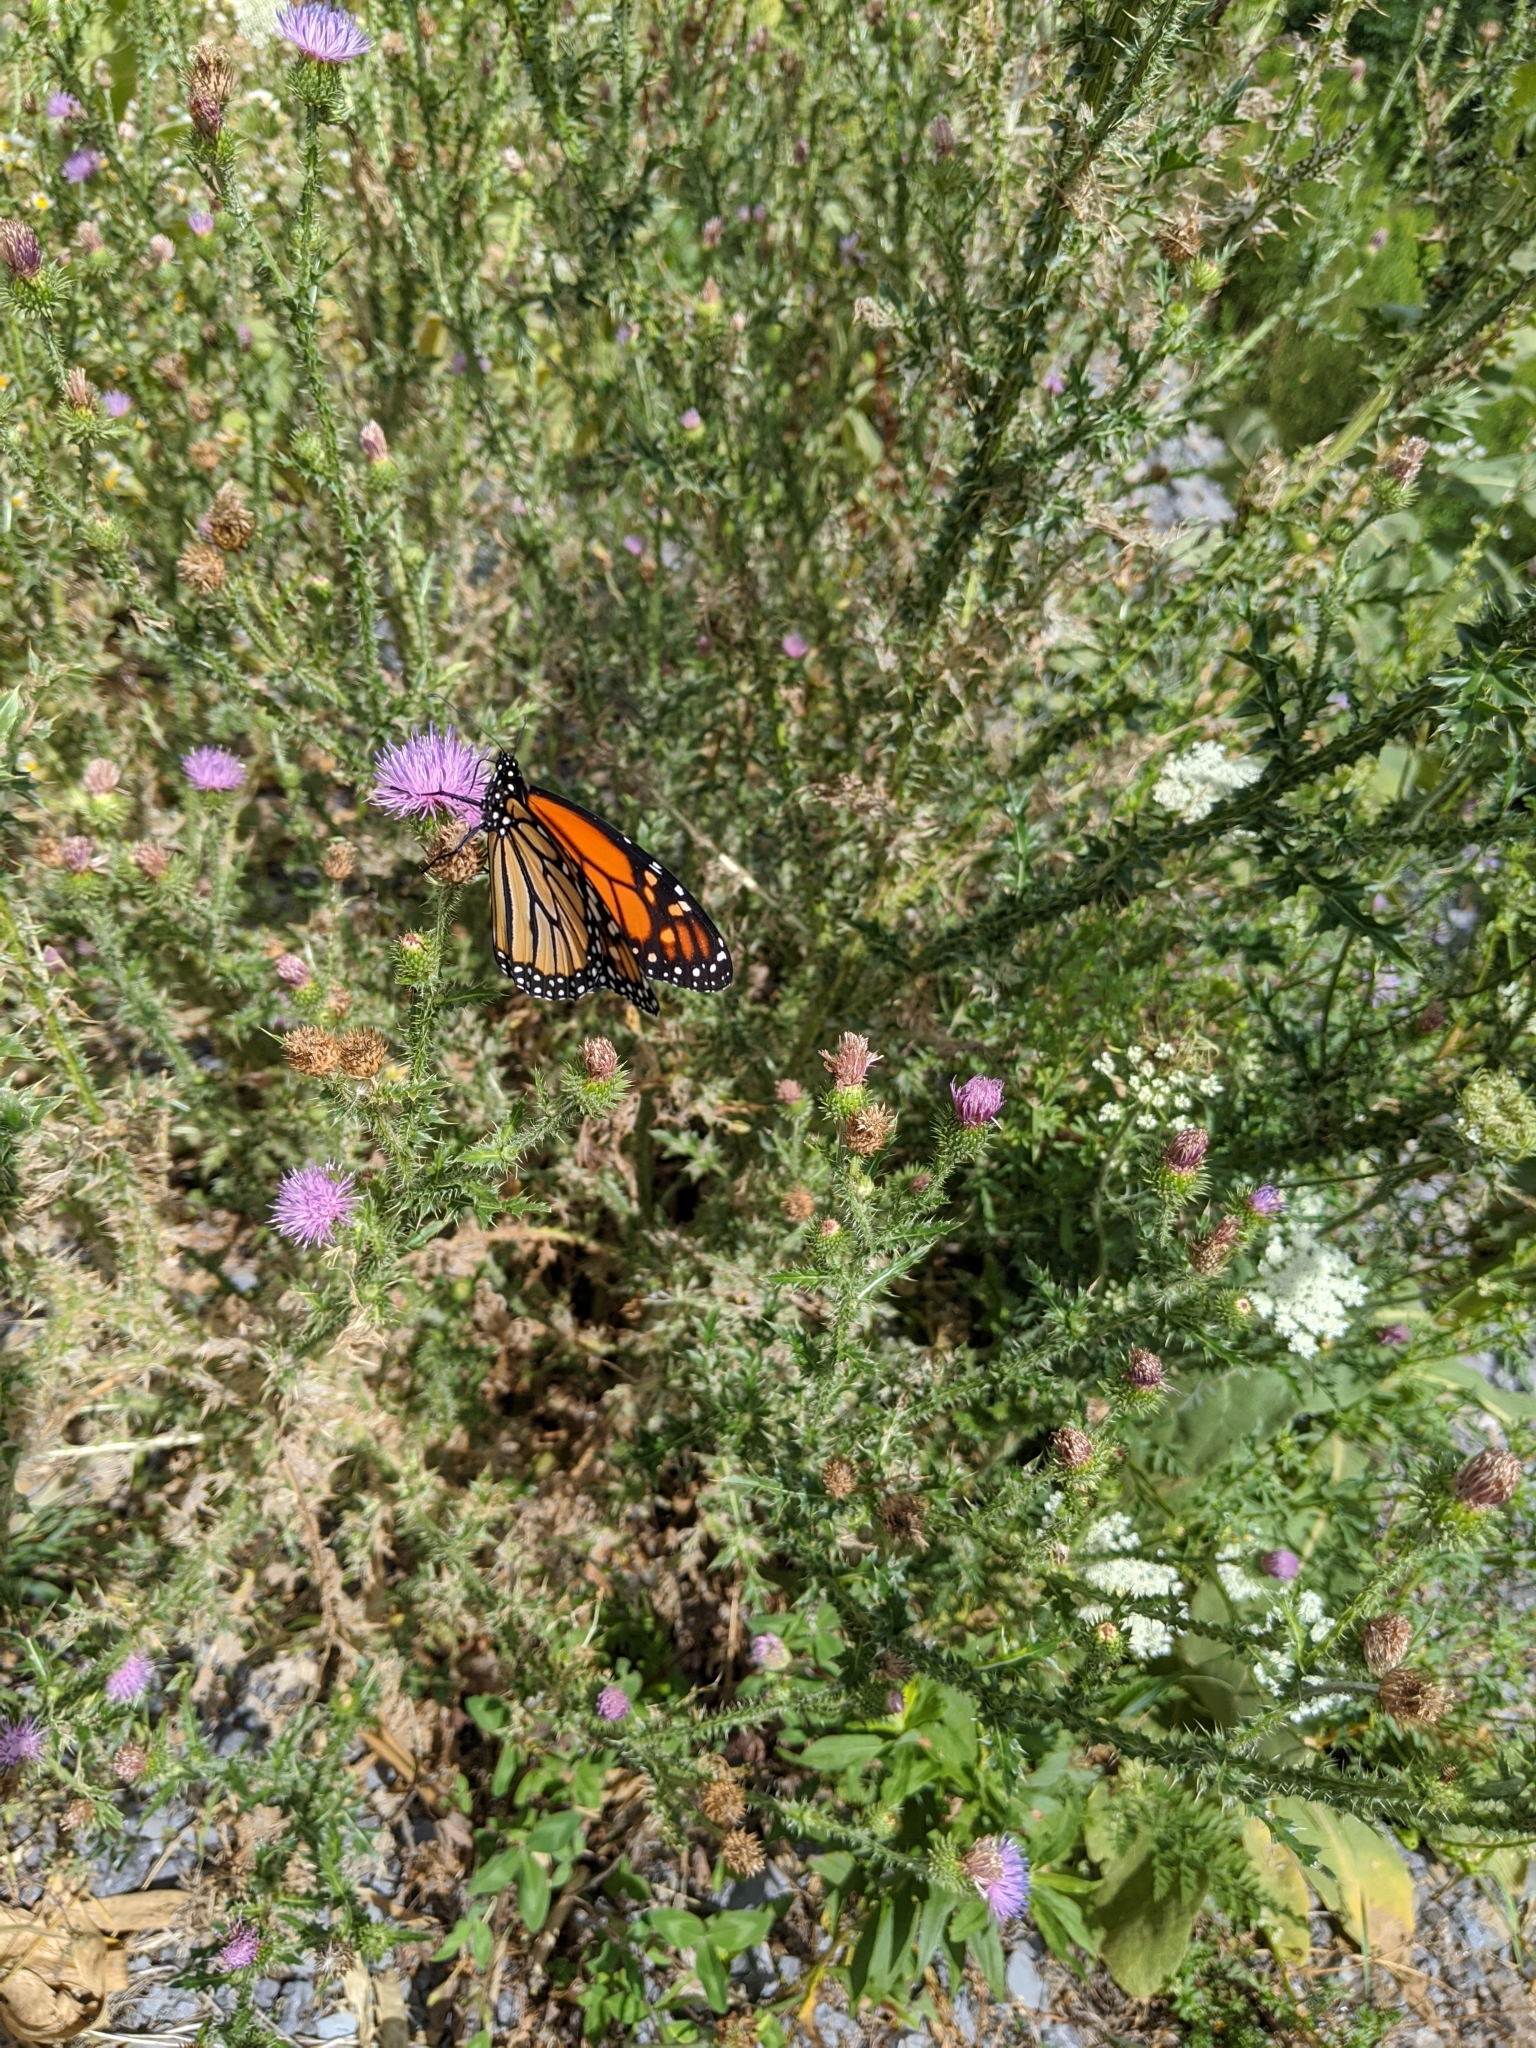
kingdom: Animalia
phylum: Arthropoda
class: Insecta
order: Lepidoptera
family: Nymphalidae
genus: Danaus
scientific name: Danaus plexippus
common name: Monarch
